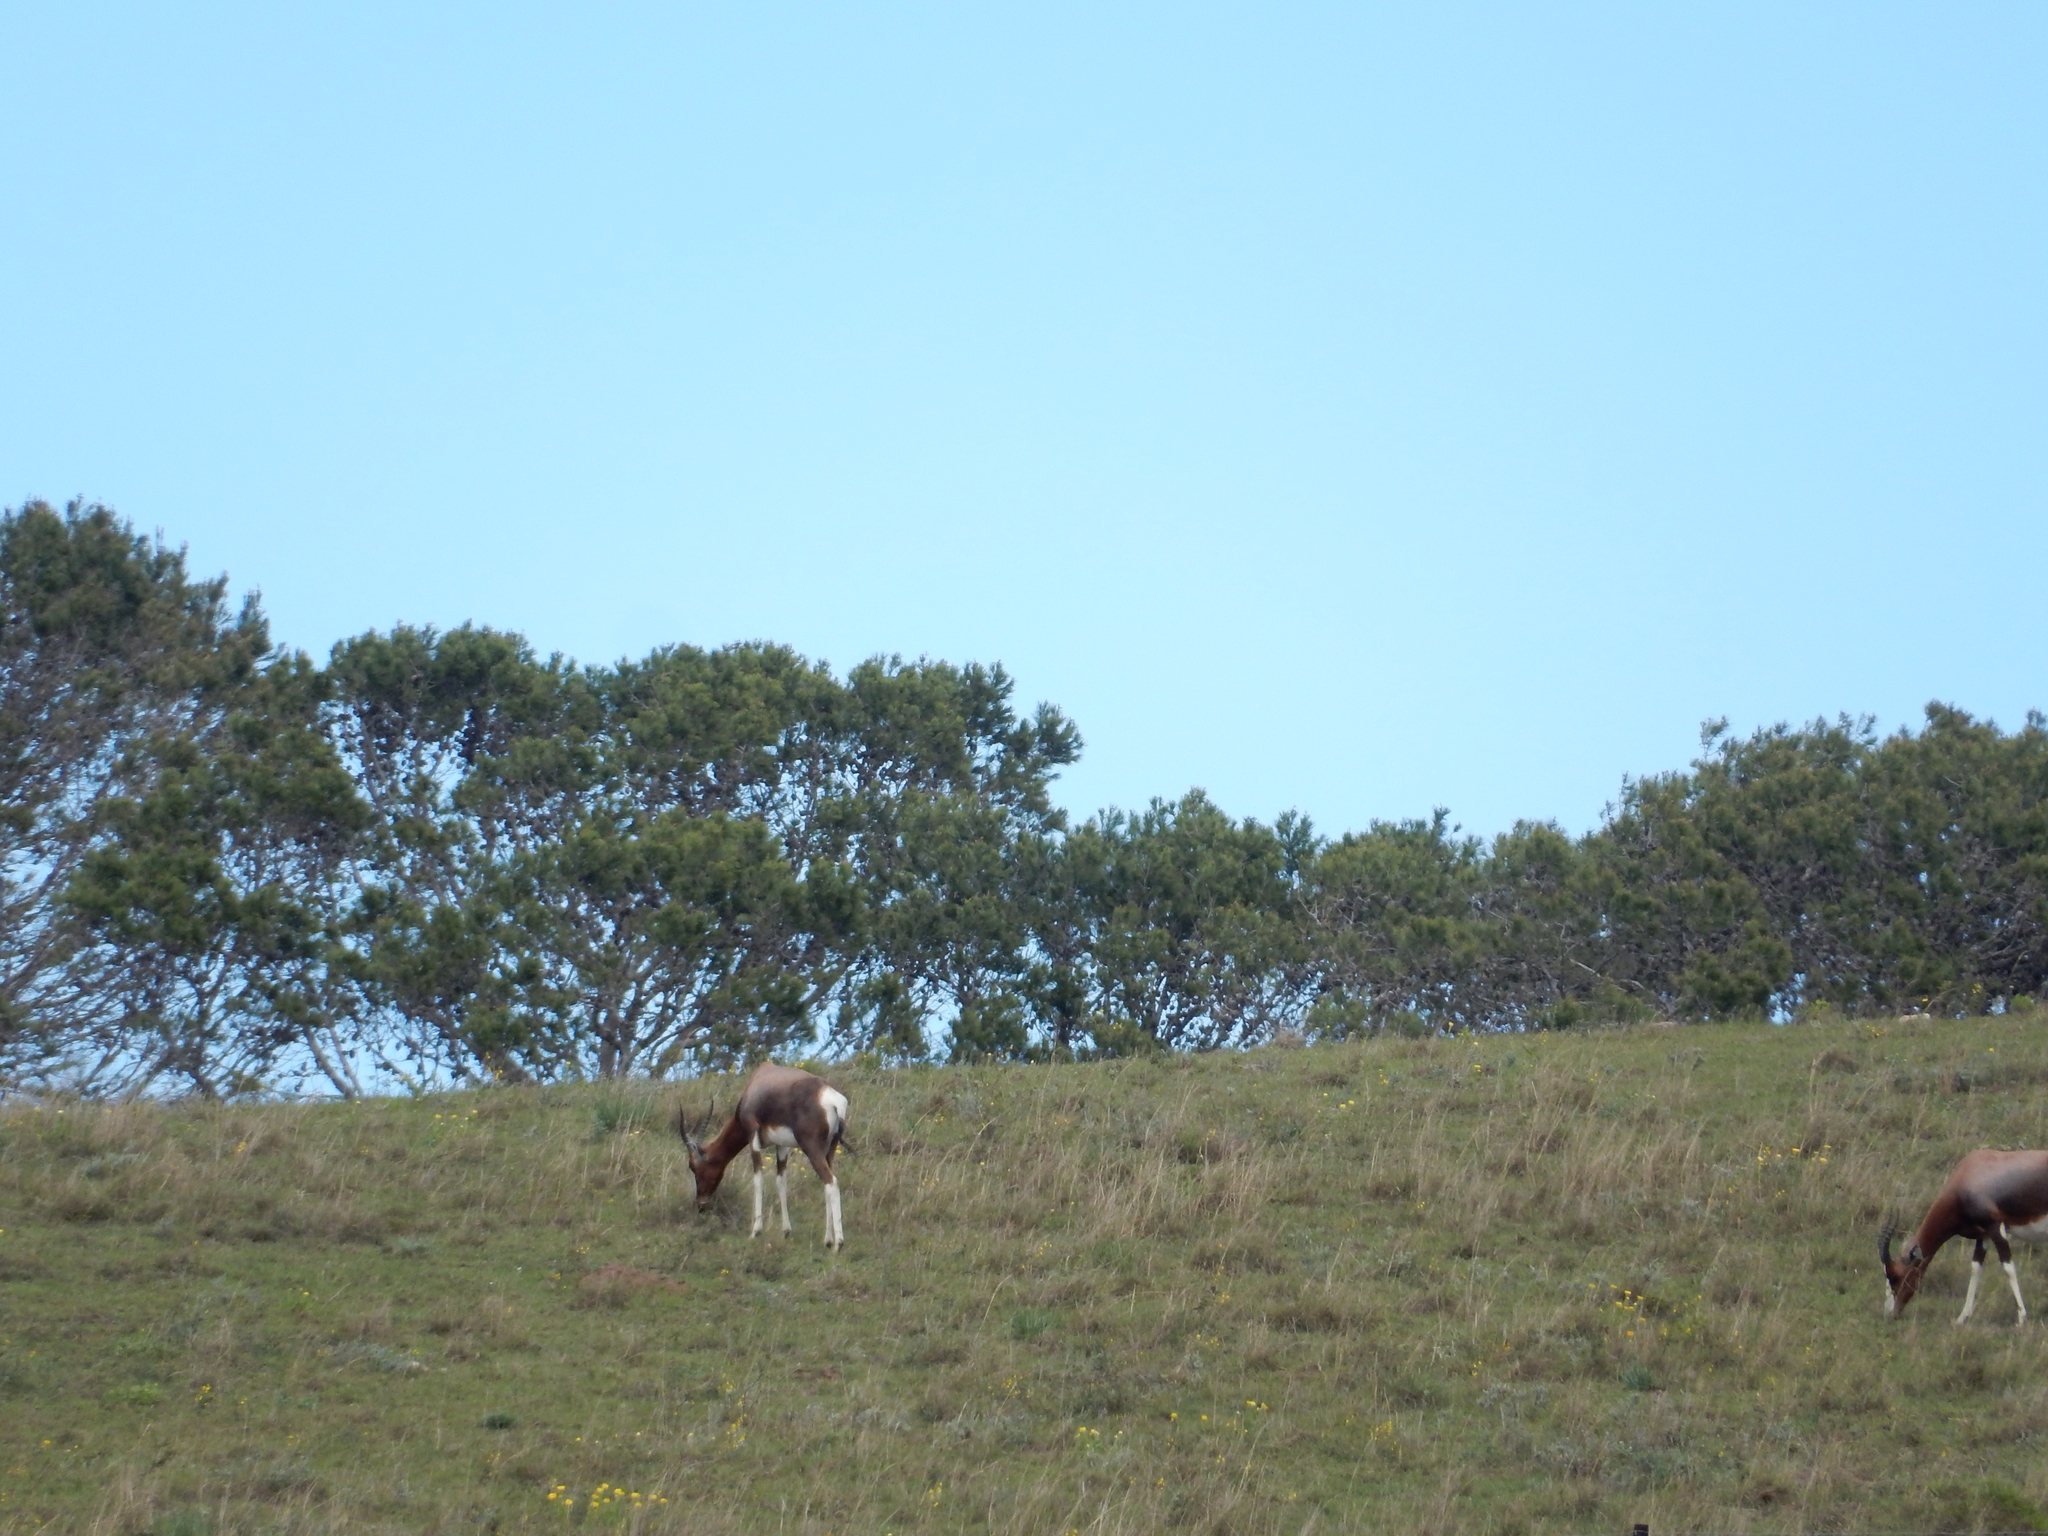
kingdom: Animalia
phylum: Chordata
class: Mammalia
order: Artiodactyla
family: Bovidae
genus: Damaliscus
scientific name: Damaliscus pygargus
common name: Bontebok
